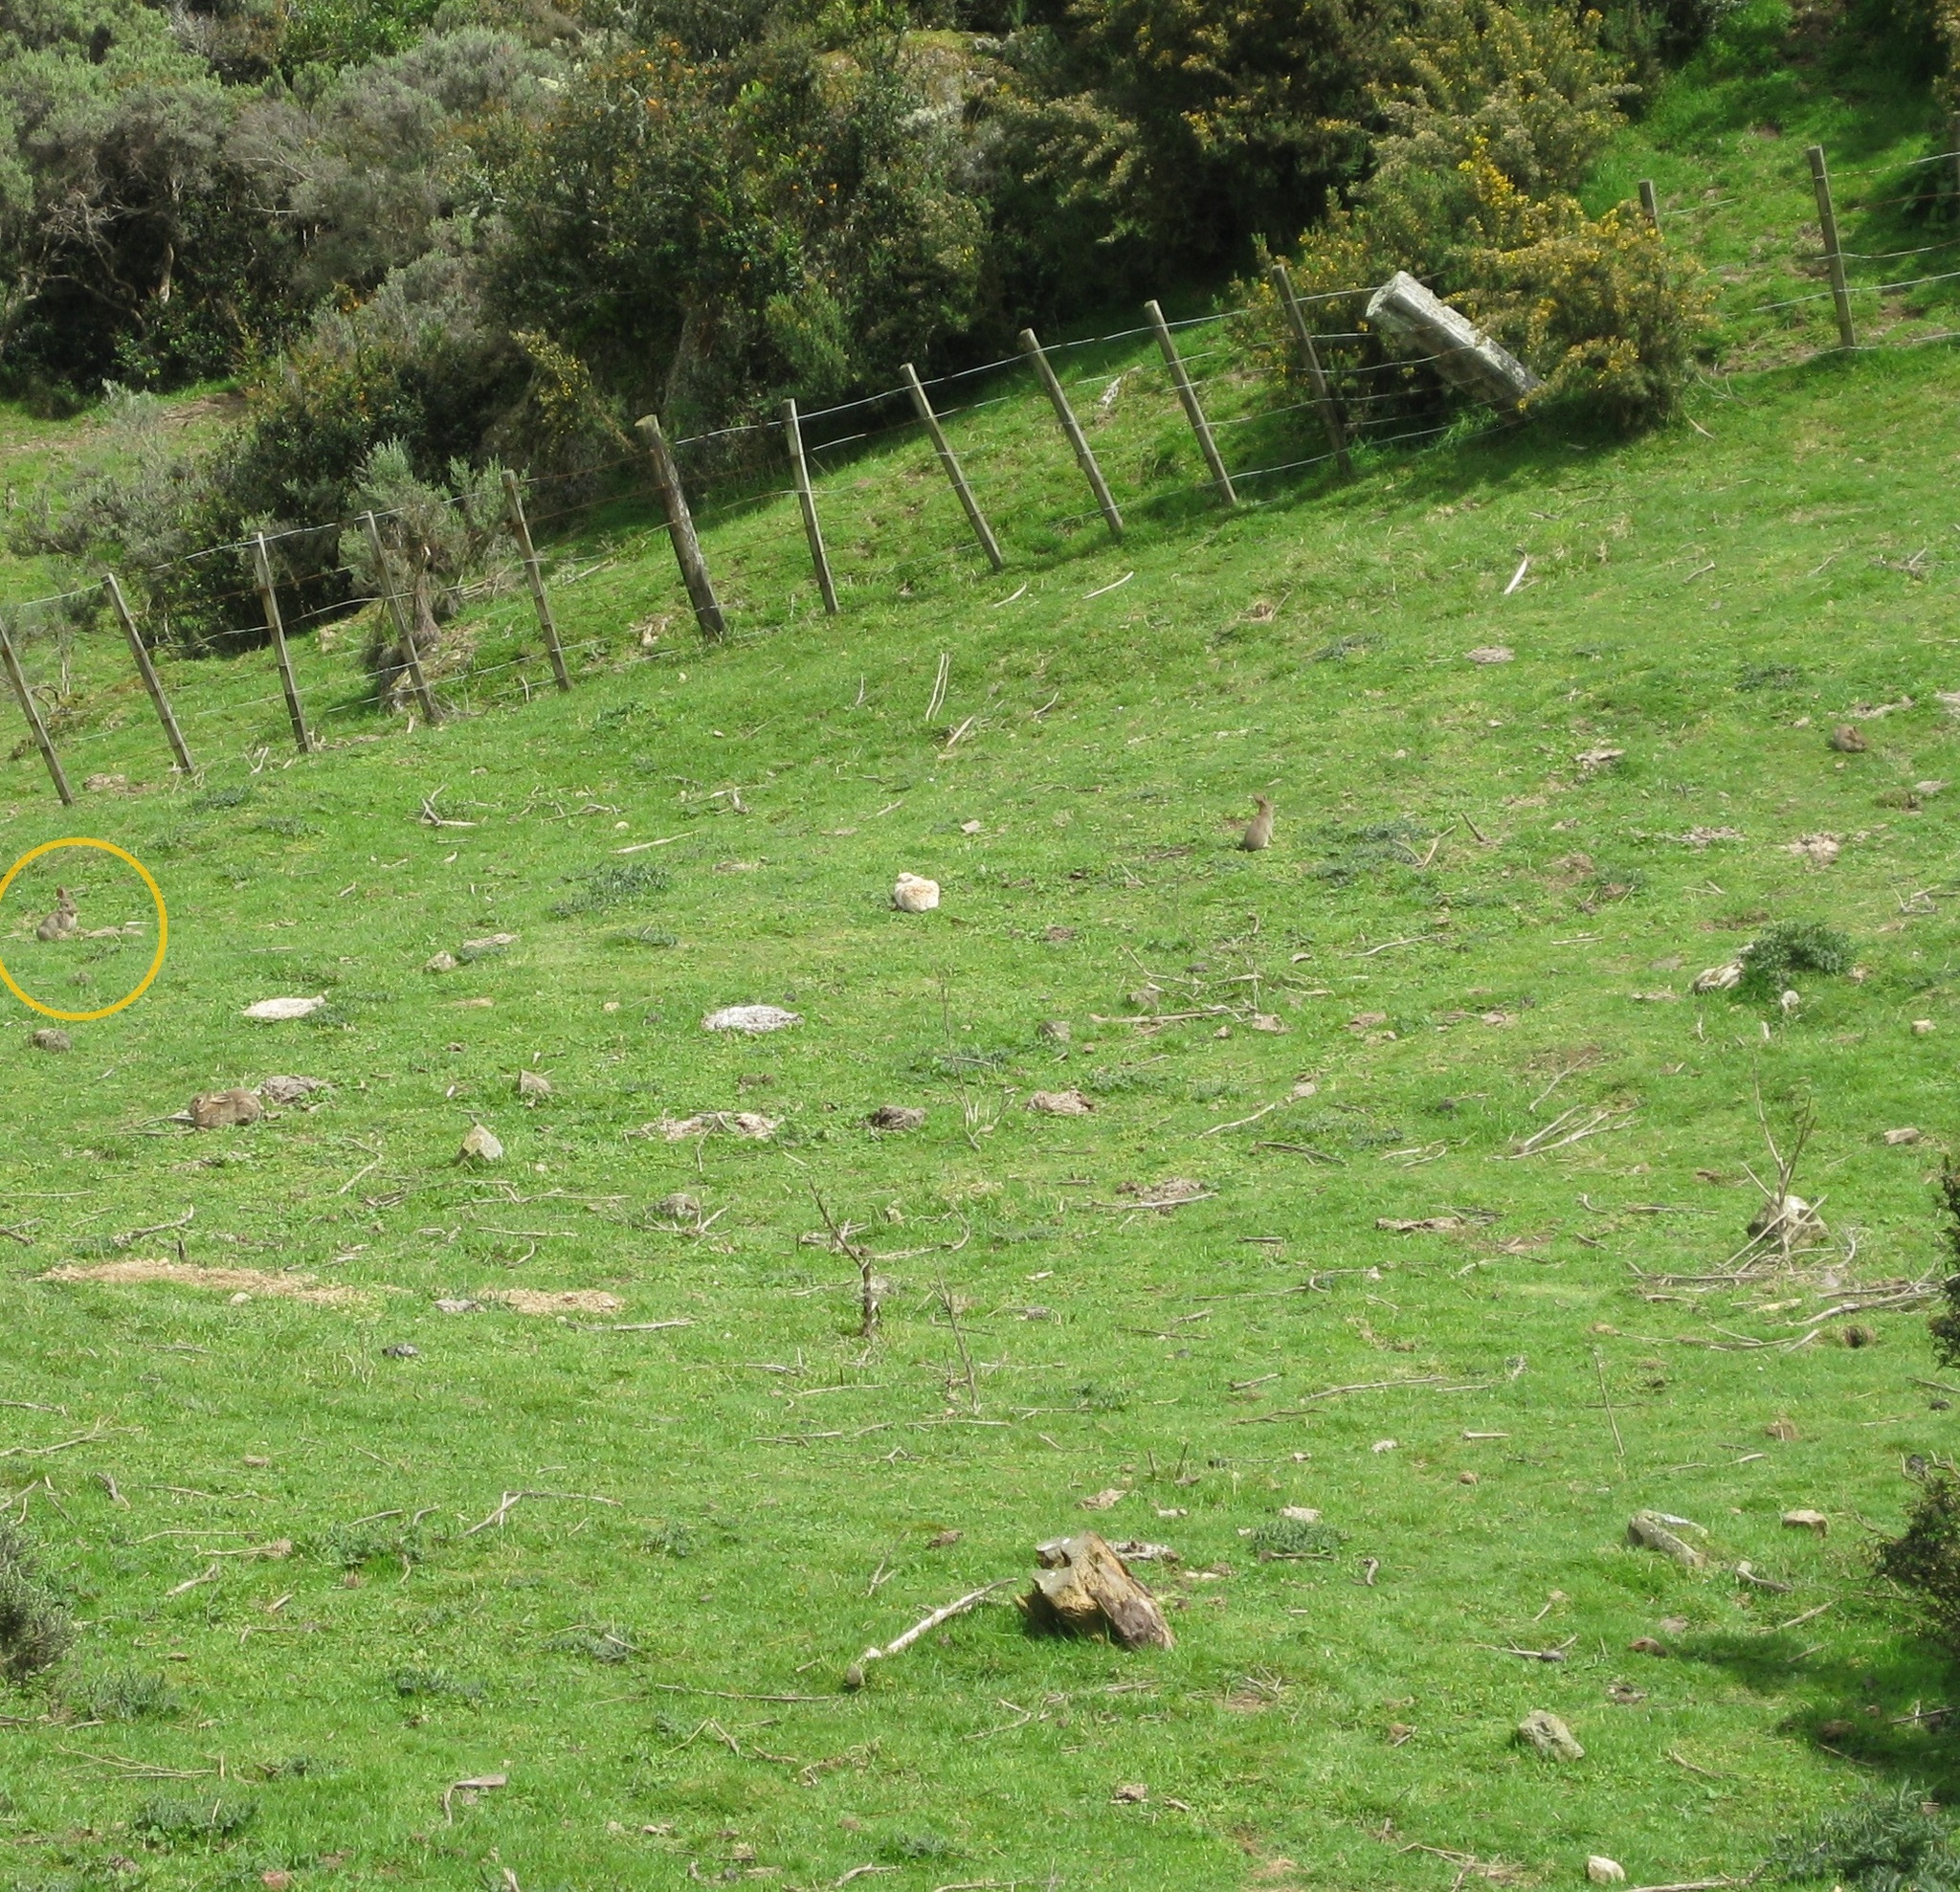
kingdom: Animalia
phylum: Chordata
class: Mammalia
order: Lagomorpha
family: Leporidae
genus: Oryctolagus
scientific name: Oryctolagus cuniculus
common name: European rabbit
